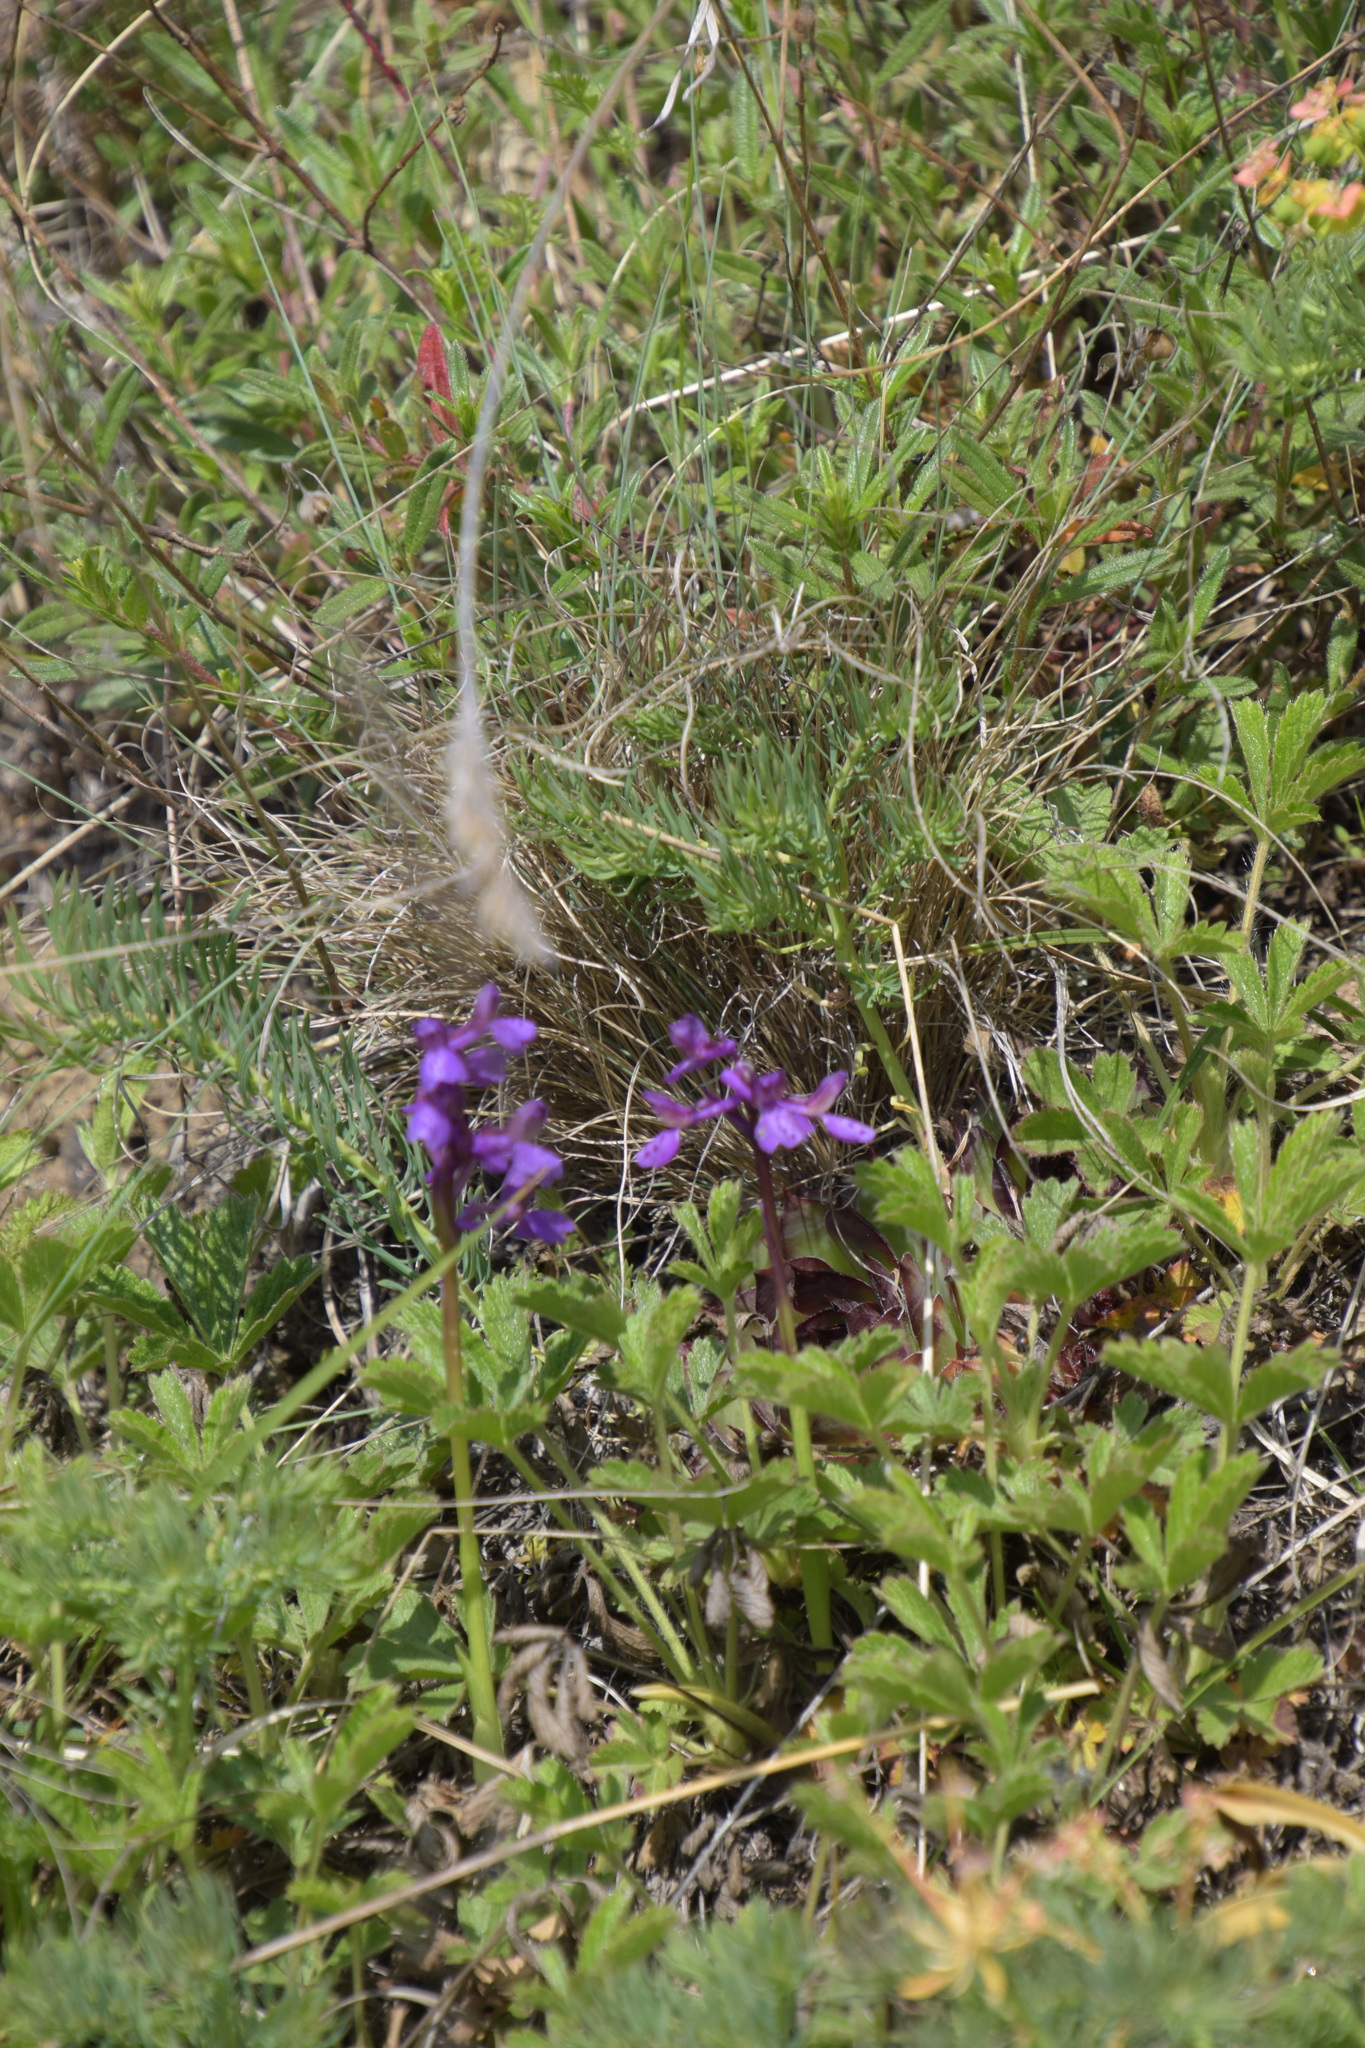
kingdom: Plantae
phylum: Tracheophyta
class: Liliopsida
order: Asparagales
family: Orchidaceae
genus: Anacamptis
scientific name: Anacamptis morio
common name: Green-winged orchid
